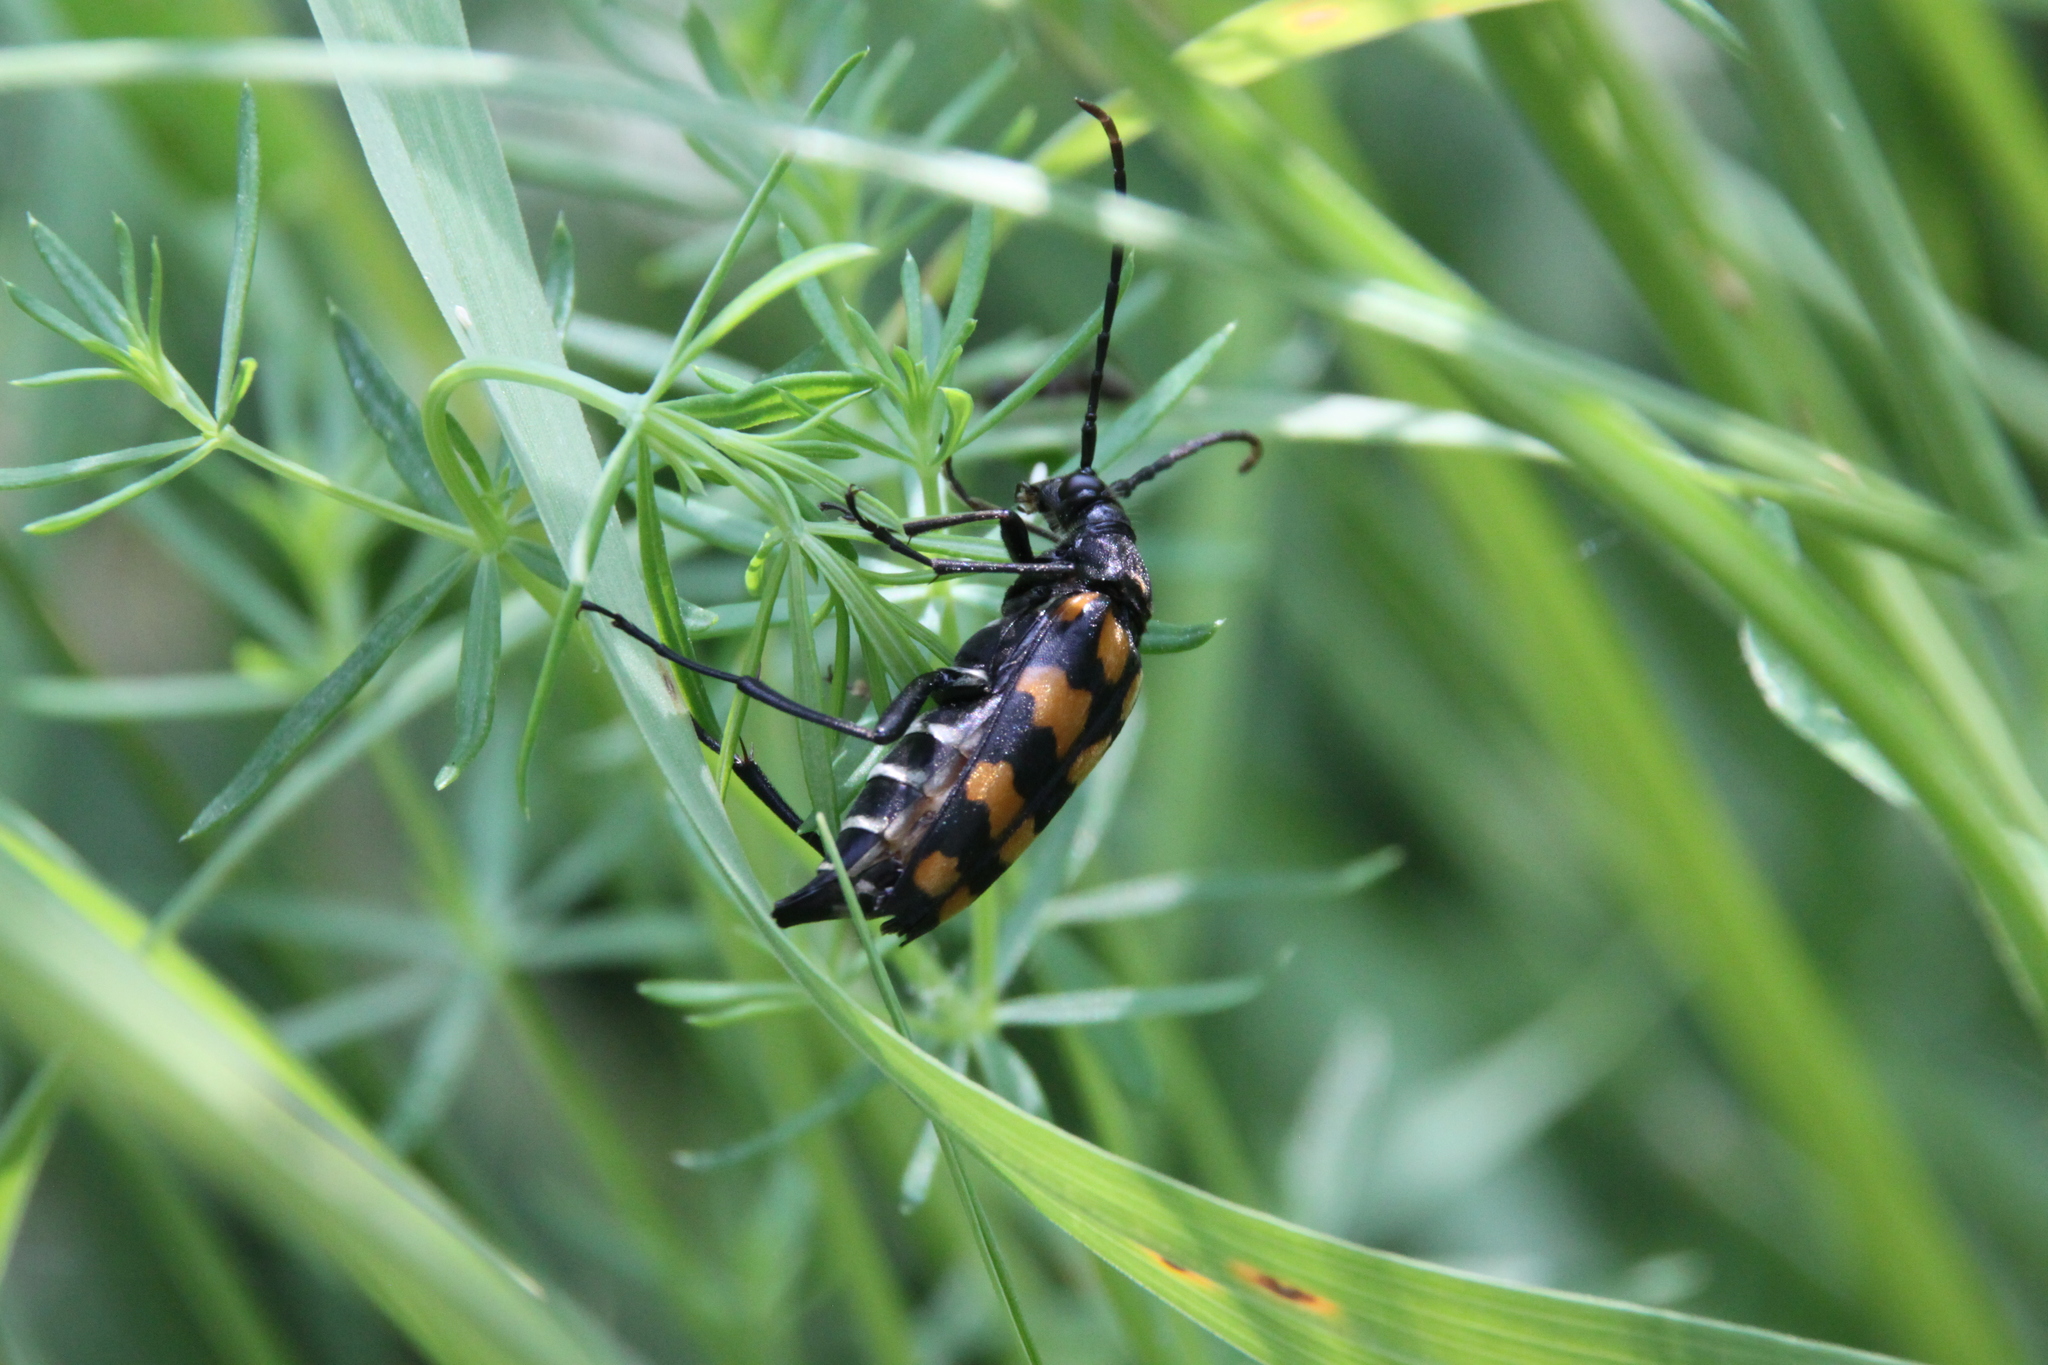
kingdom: Animalia
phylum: Arthropoda
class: Insecta
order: Coleoptera
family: Cerambycidae
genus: Leptura
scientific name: Leptura quadrifasciata
